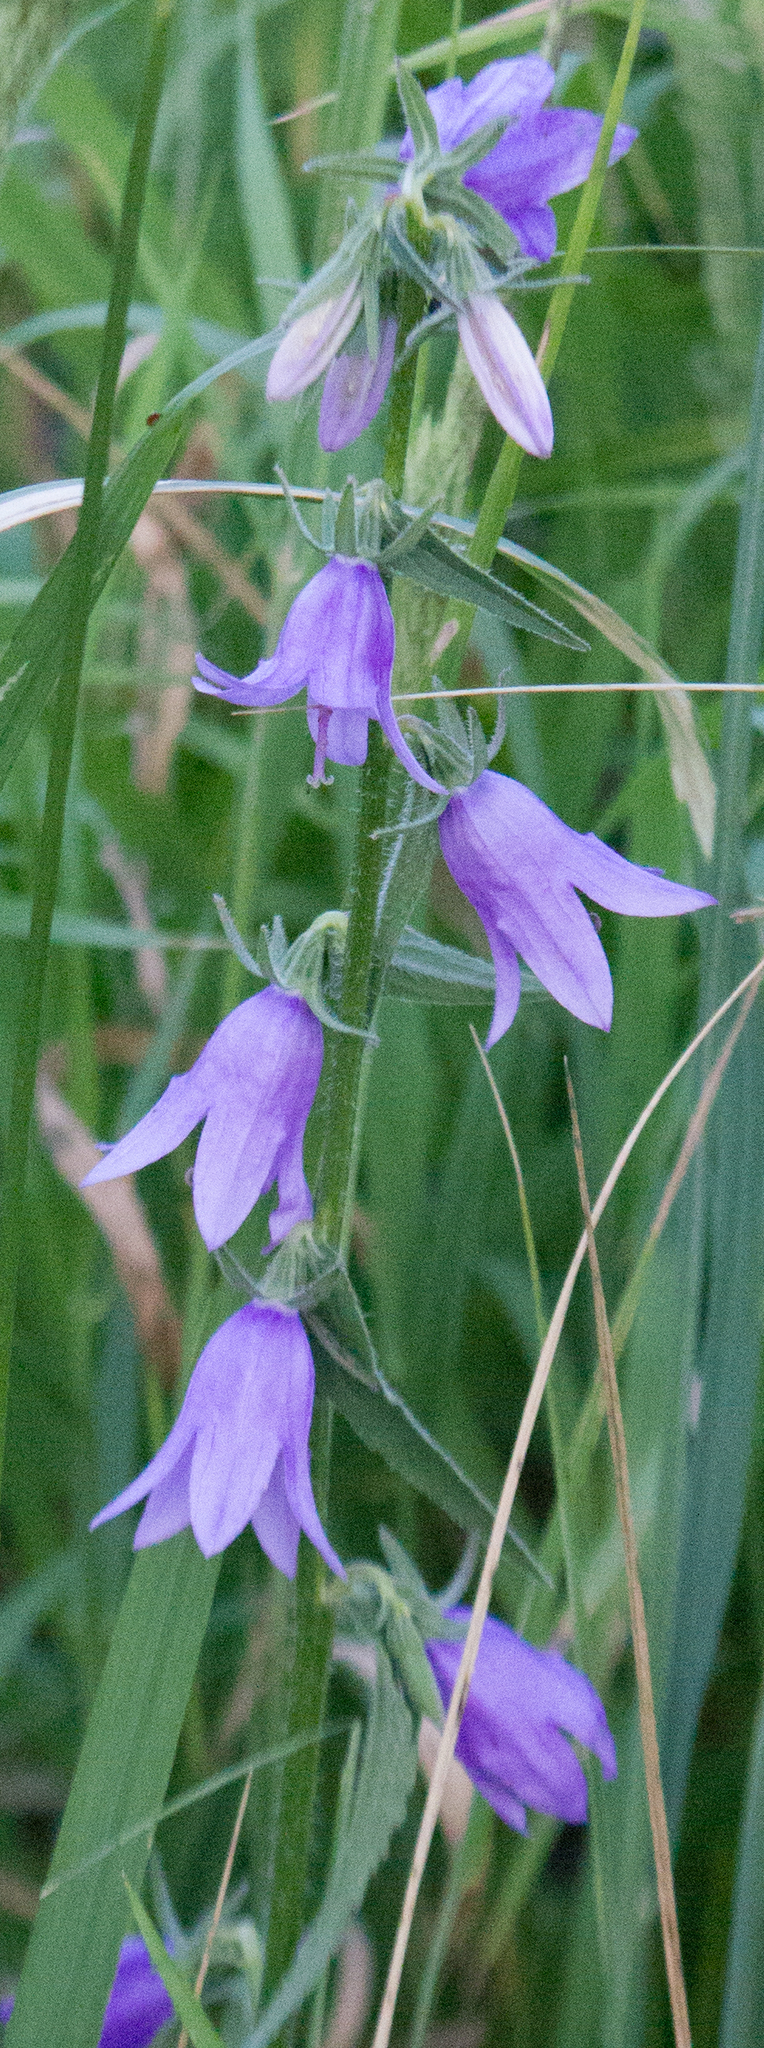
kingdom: Plantae
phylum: Tracheophyta
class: Magnoliopsida
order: Asterales
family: Campanulaceae
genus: Campanula
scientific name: Campanula rapunculoides
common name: Creeping bellflower
